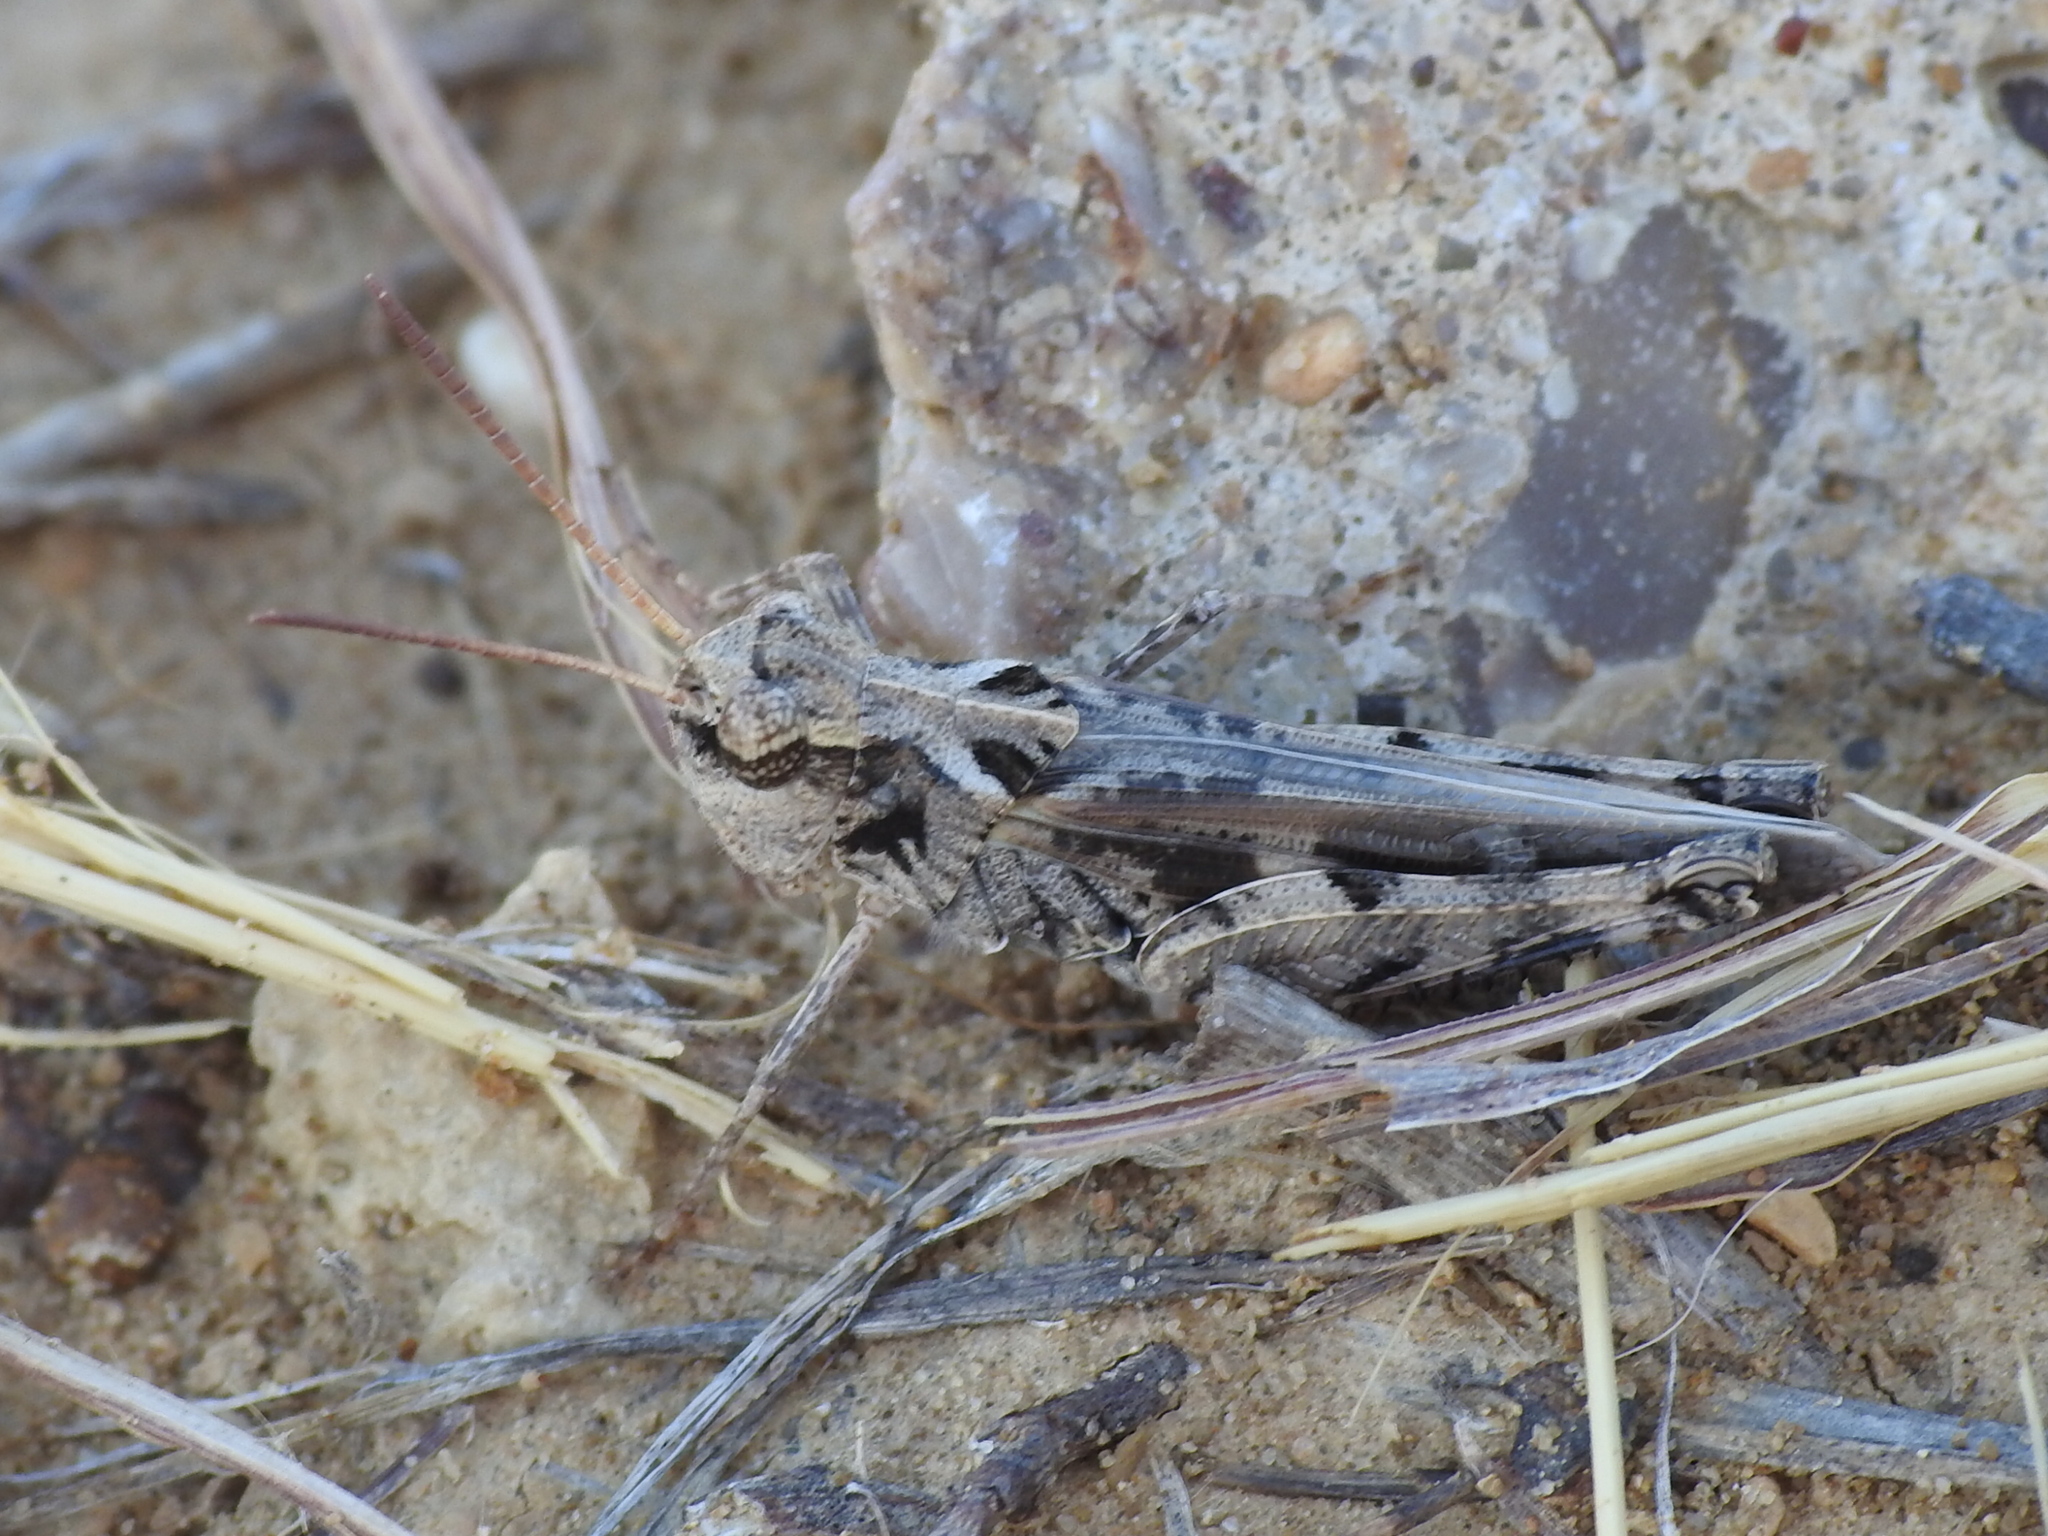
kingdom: Animalia
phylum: Arthropoda
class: Insecta
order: Orthoptera
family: Acrididae
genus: Encoptolophus
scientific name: Encoptolophus costalis
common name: Dusky grasshopper
